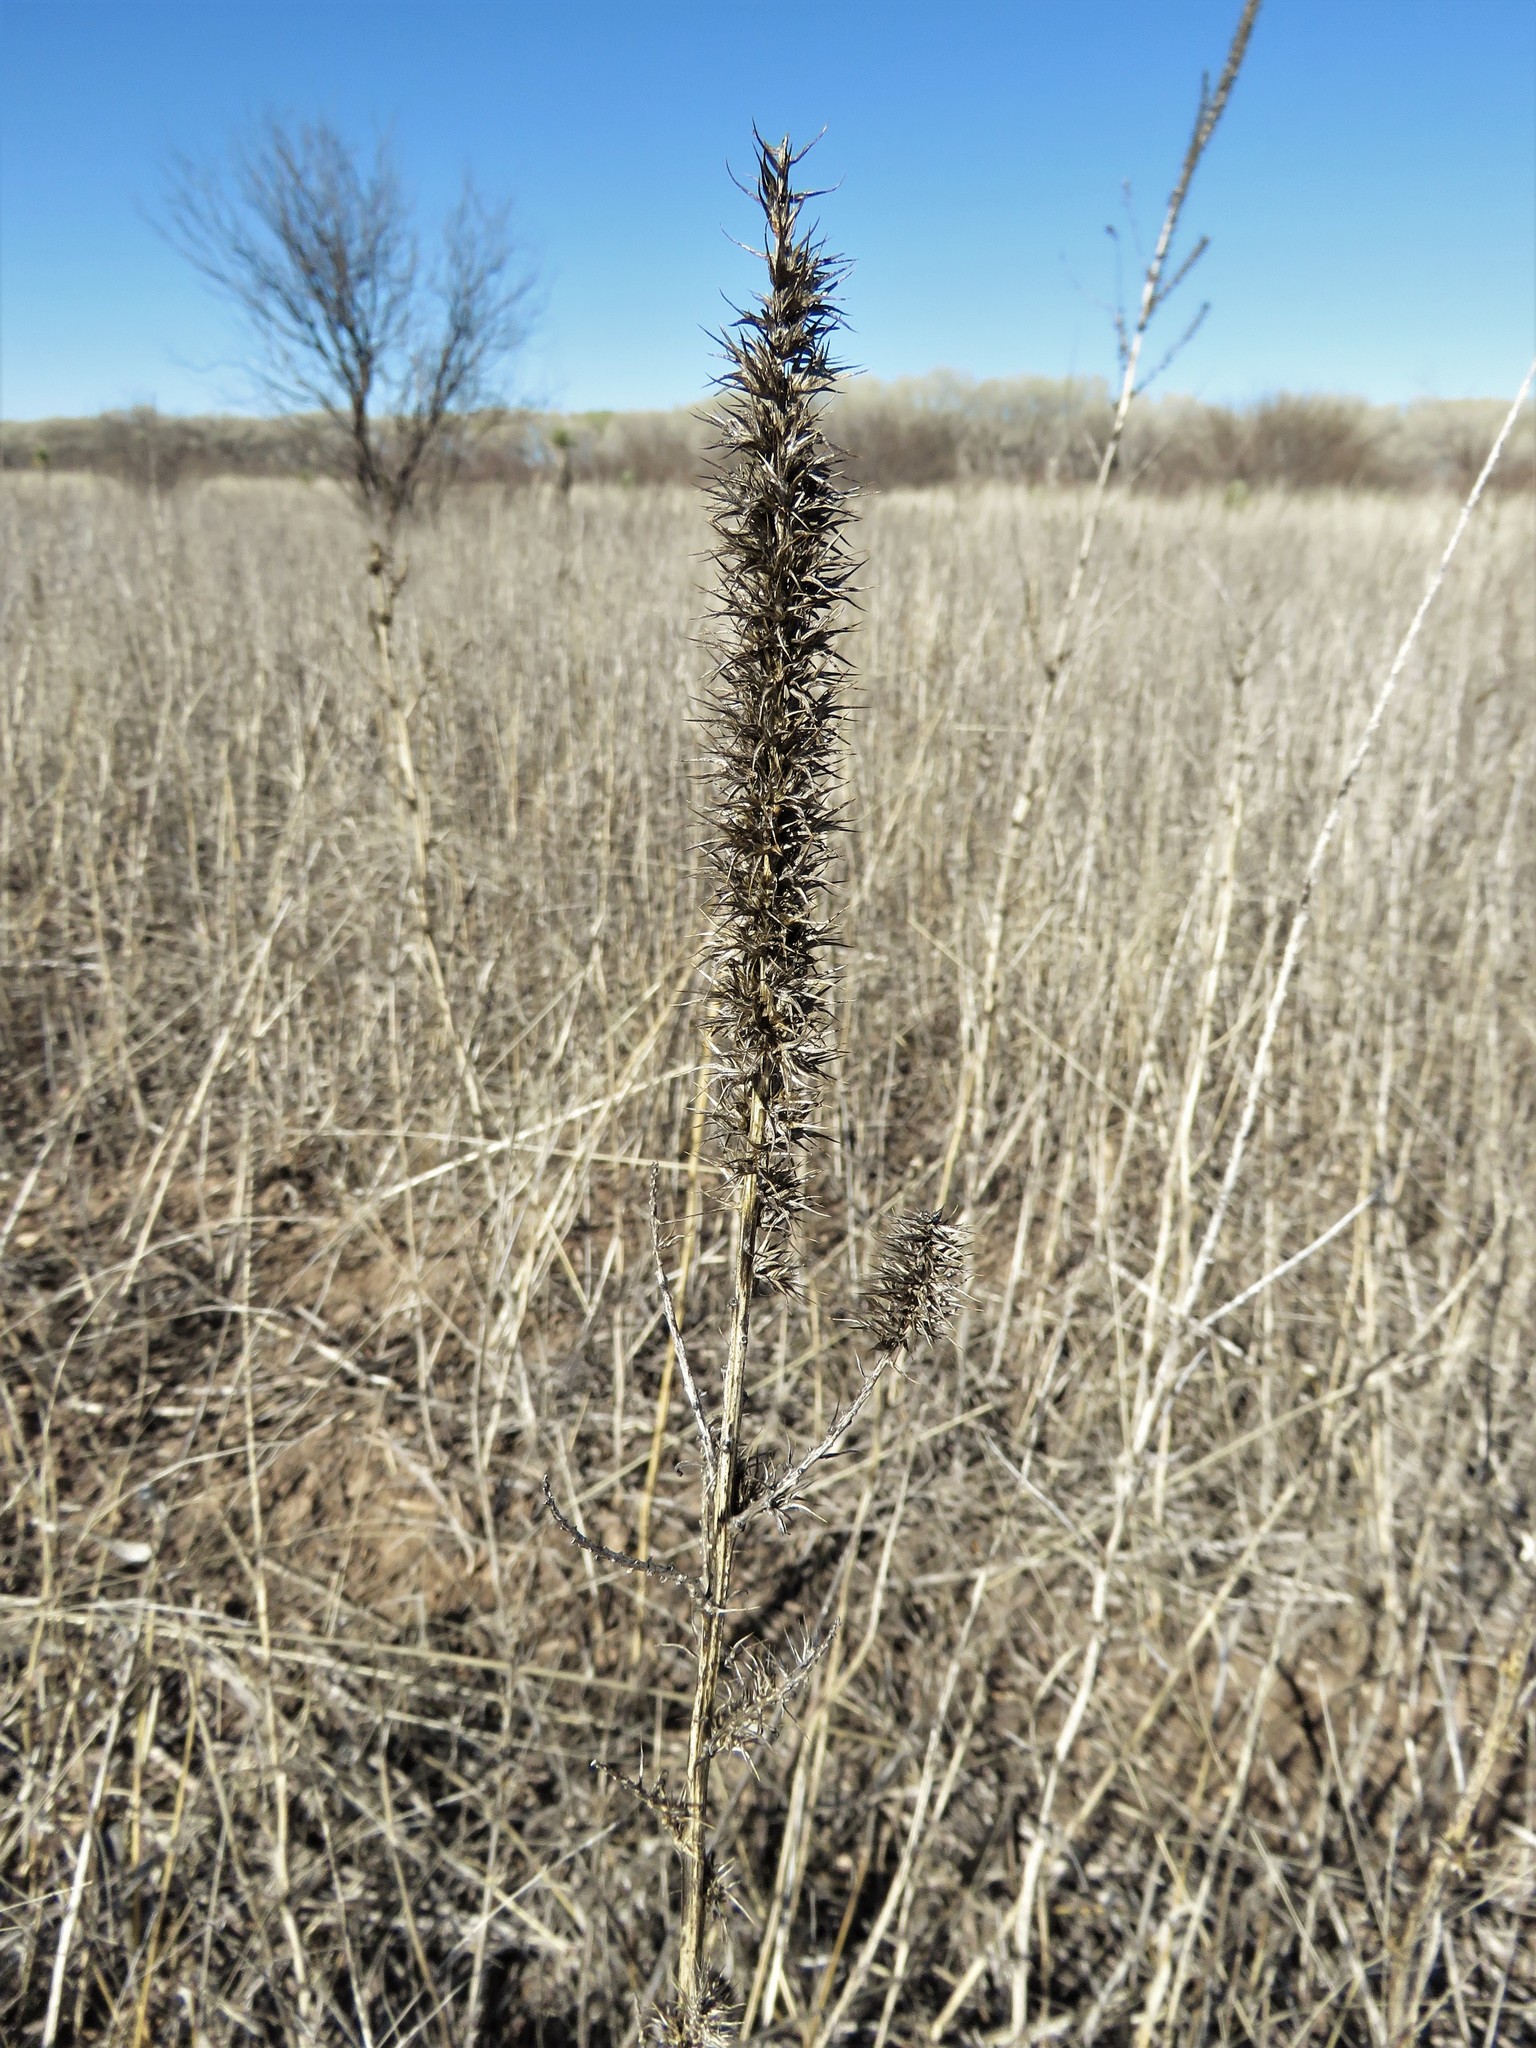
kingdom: Plantae
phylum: Tracheophyta
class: Magnoliopsida
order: Caryophyllales
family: Amaranthaceae
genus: Amaranthus
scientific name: Amaranthus palmeri
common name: Dioecious amaranth
